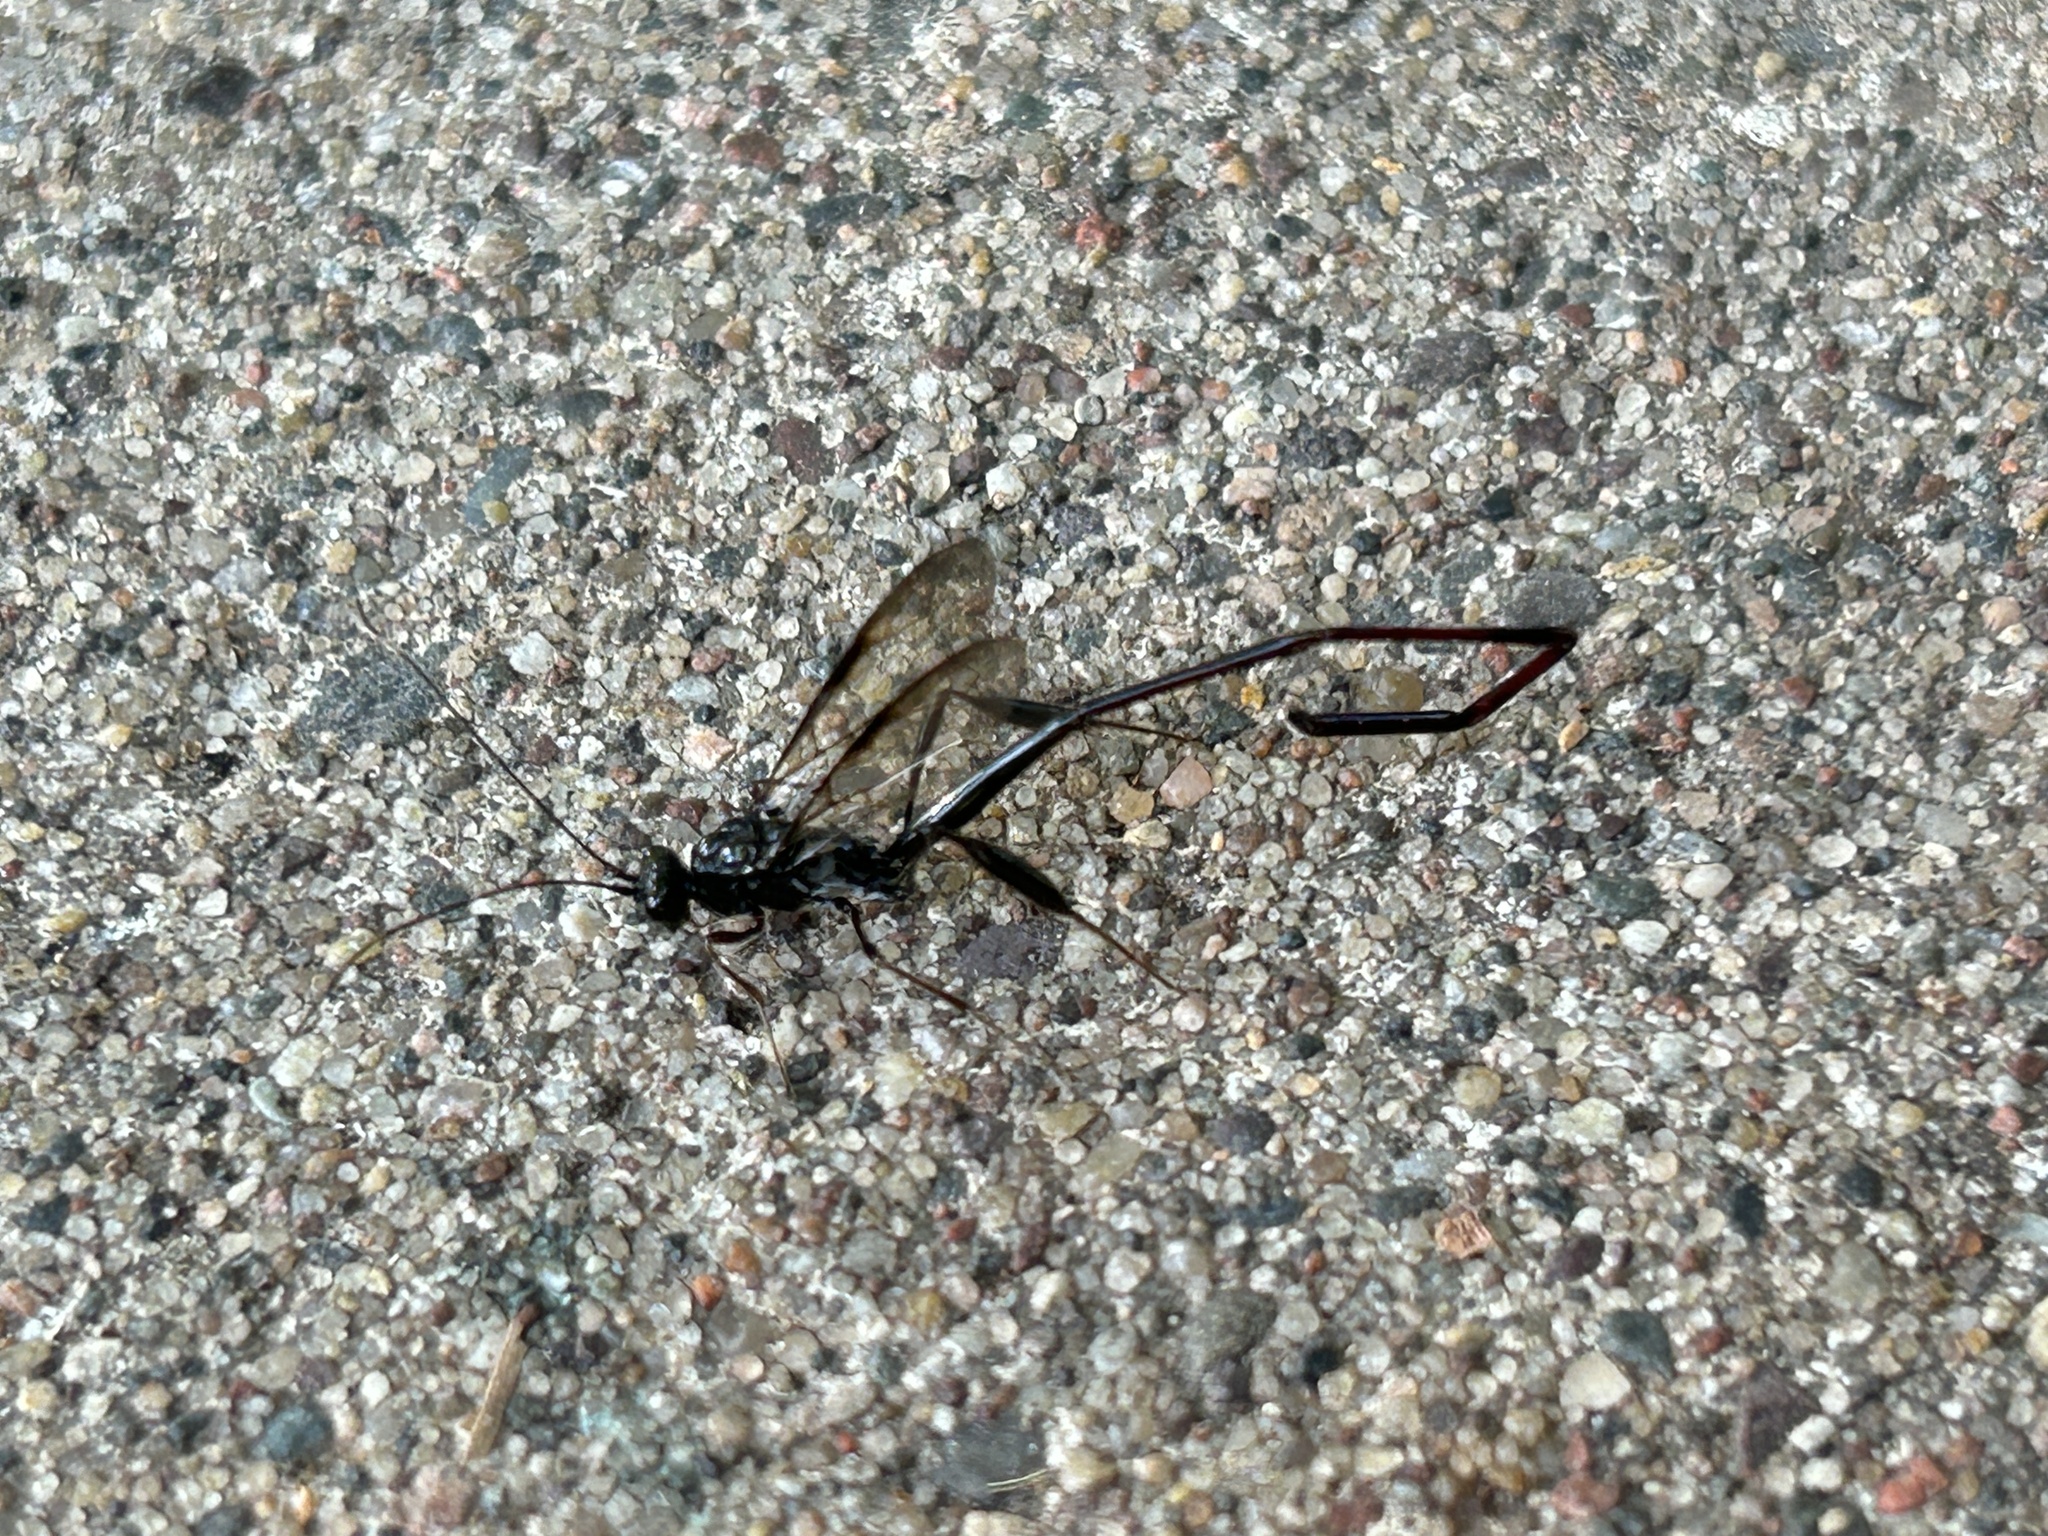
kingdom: Animalia
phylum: Arthropoda
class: Insecta
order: Hymenoptera
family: Pelecinidae
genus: Pelecinus
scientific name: Pelecinus polyturator
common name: American pelecinid wasp
